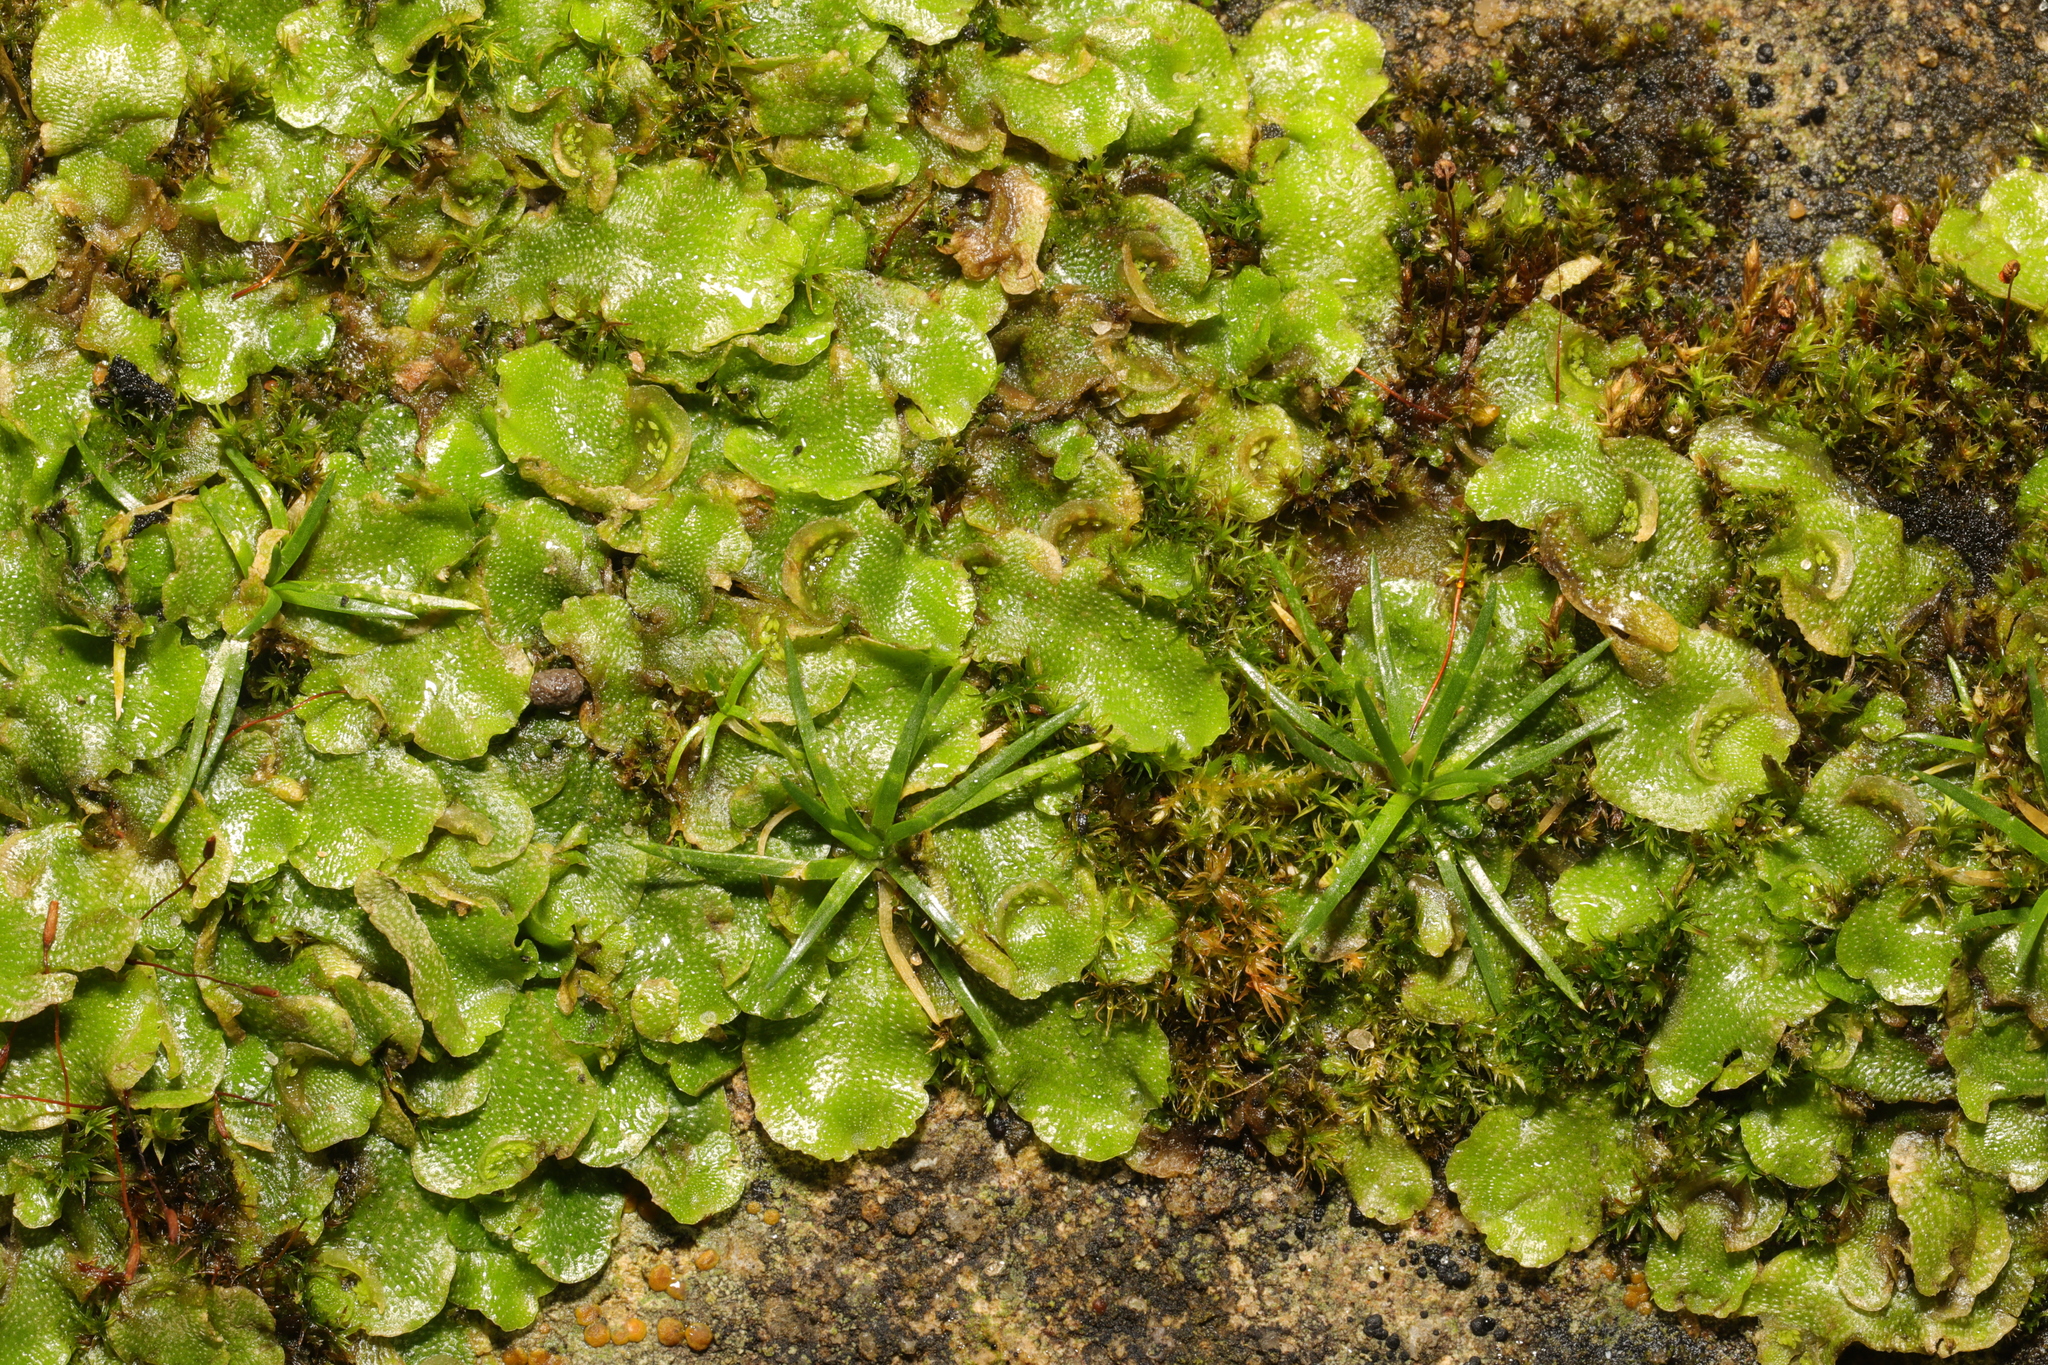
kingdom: Plantae
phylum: Marchantiophyta
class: Marchantiopsida
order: Lunulariales
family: Lunulariaceae
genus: Lunularia
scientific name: Lunularia cruciata
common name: Crescent-cup liverwort
